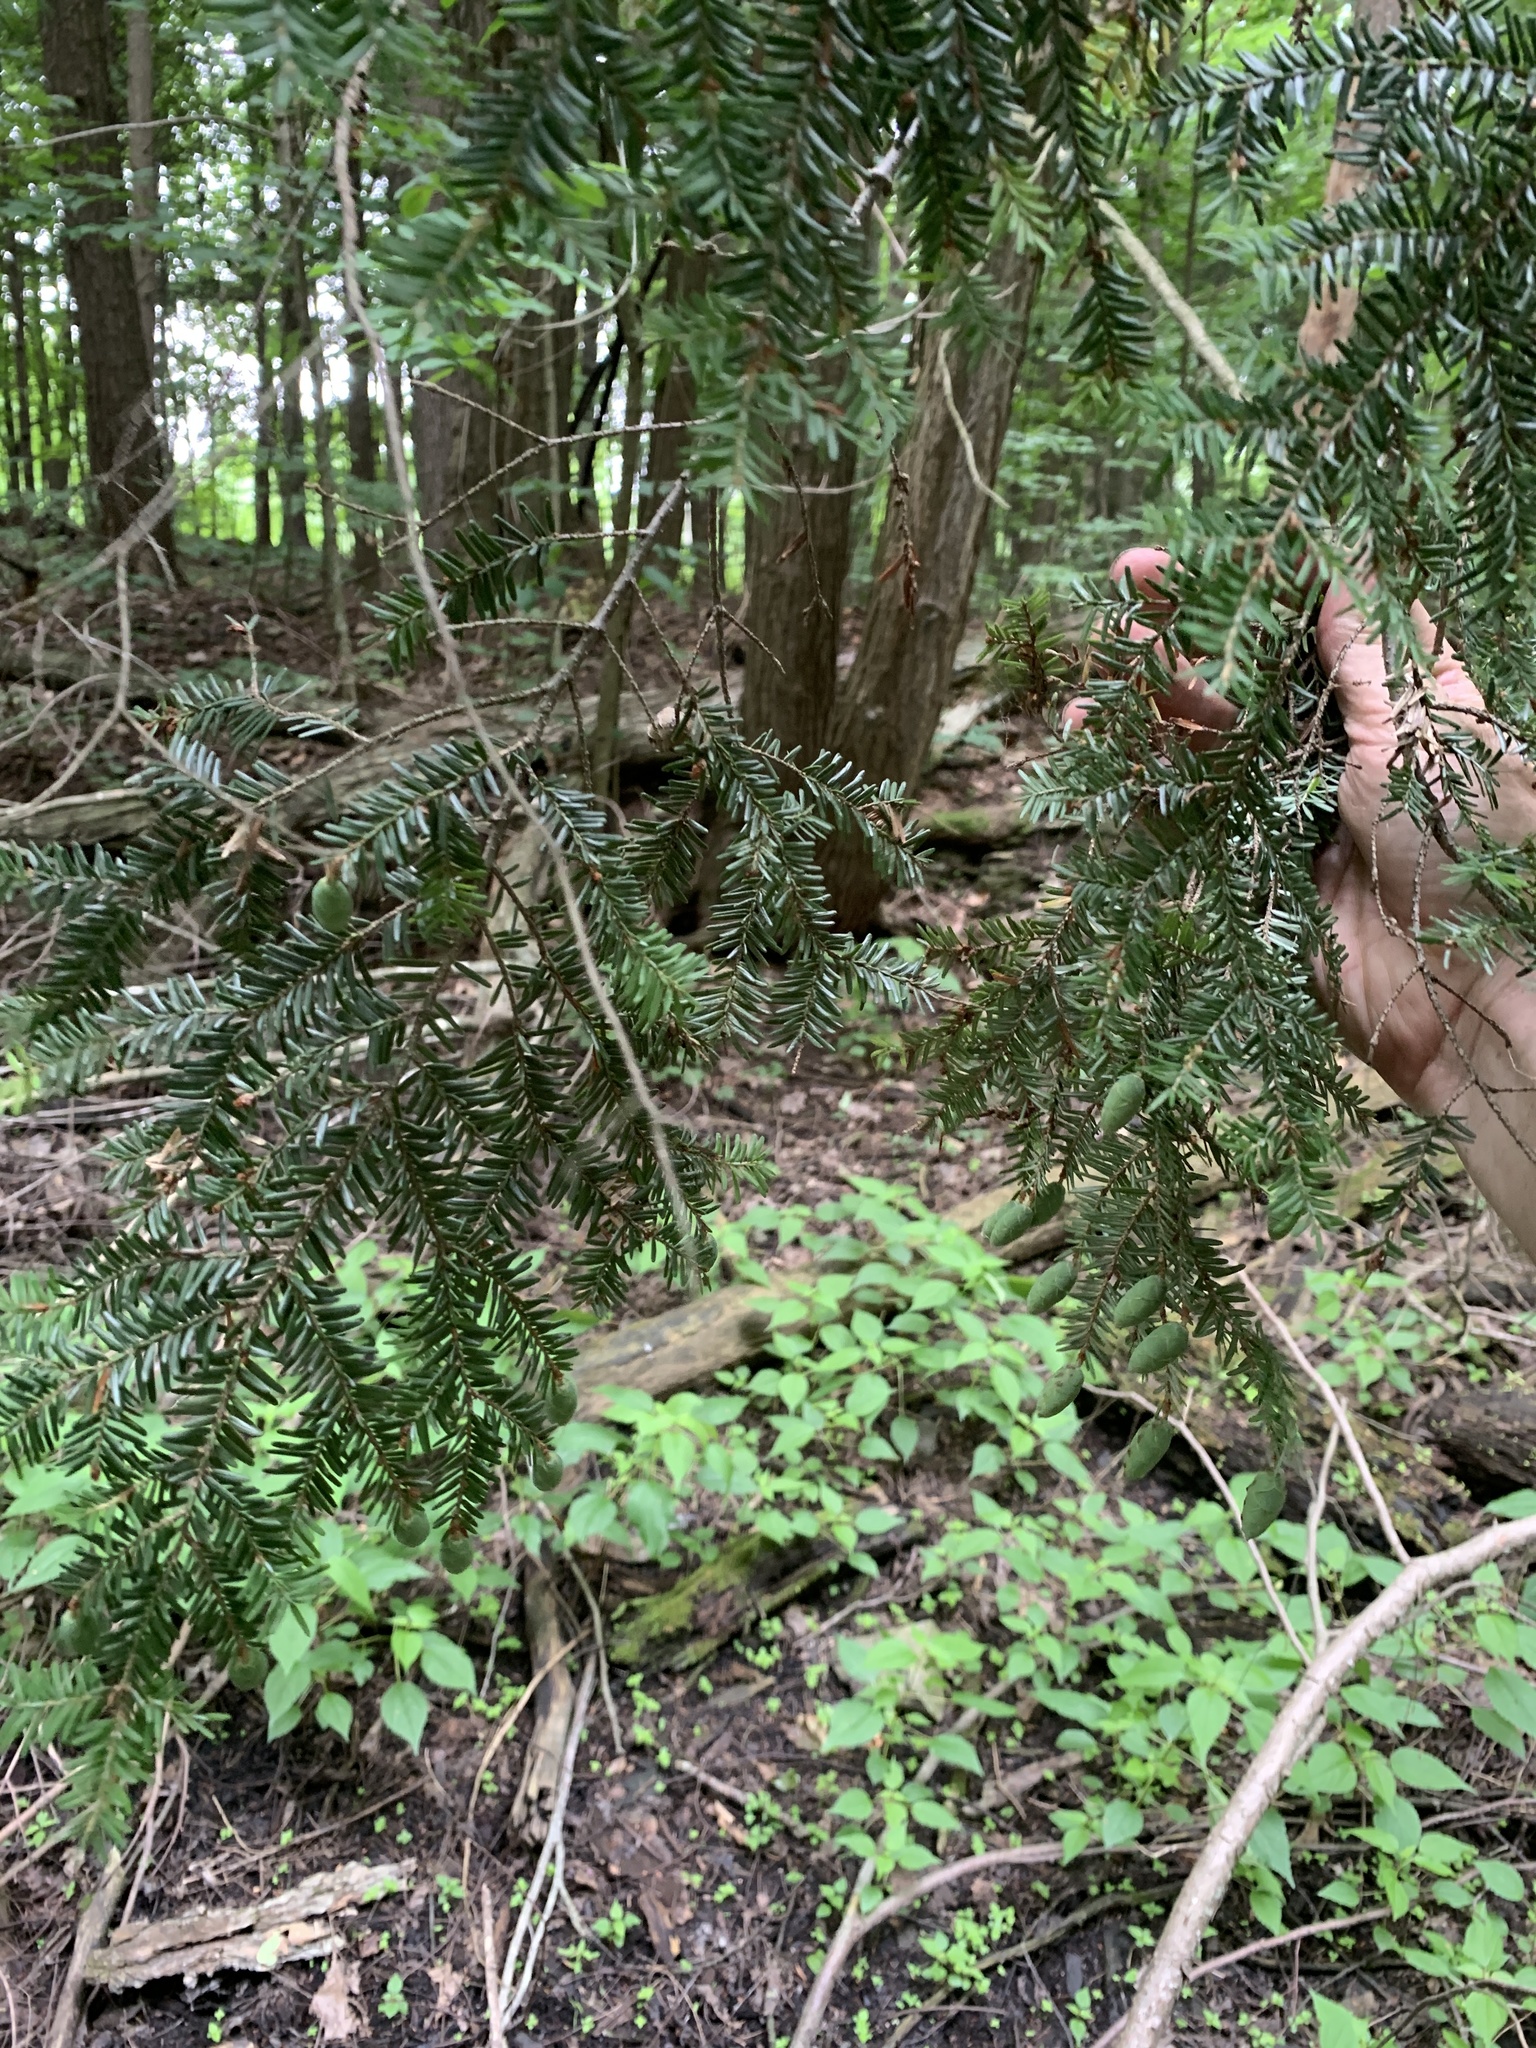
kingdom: Plantae
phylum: Tracheophyta
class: Pinopsida
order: Pinales
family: Pinaceae
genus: Tsuga
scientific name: Tsuga canadensis
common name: Eastern hemlock
